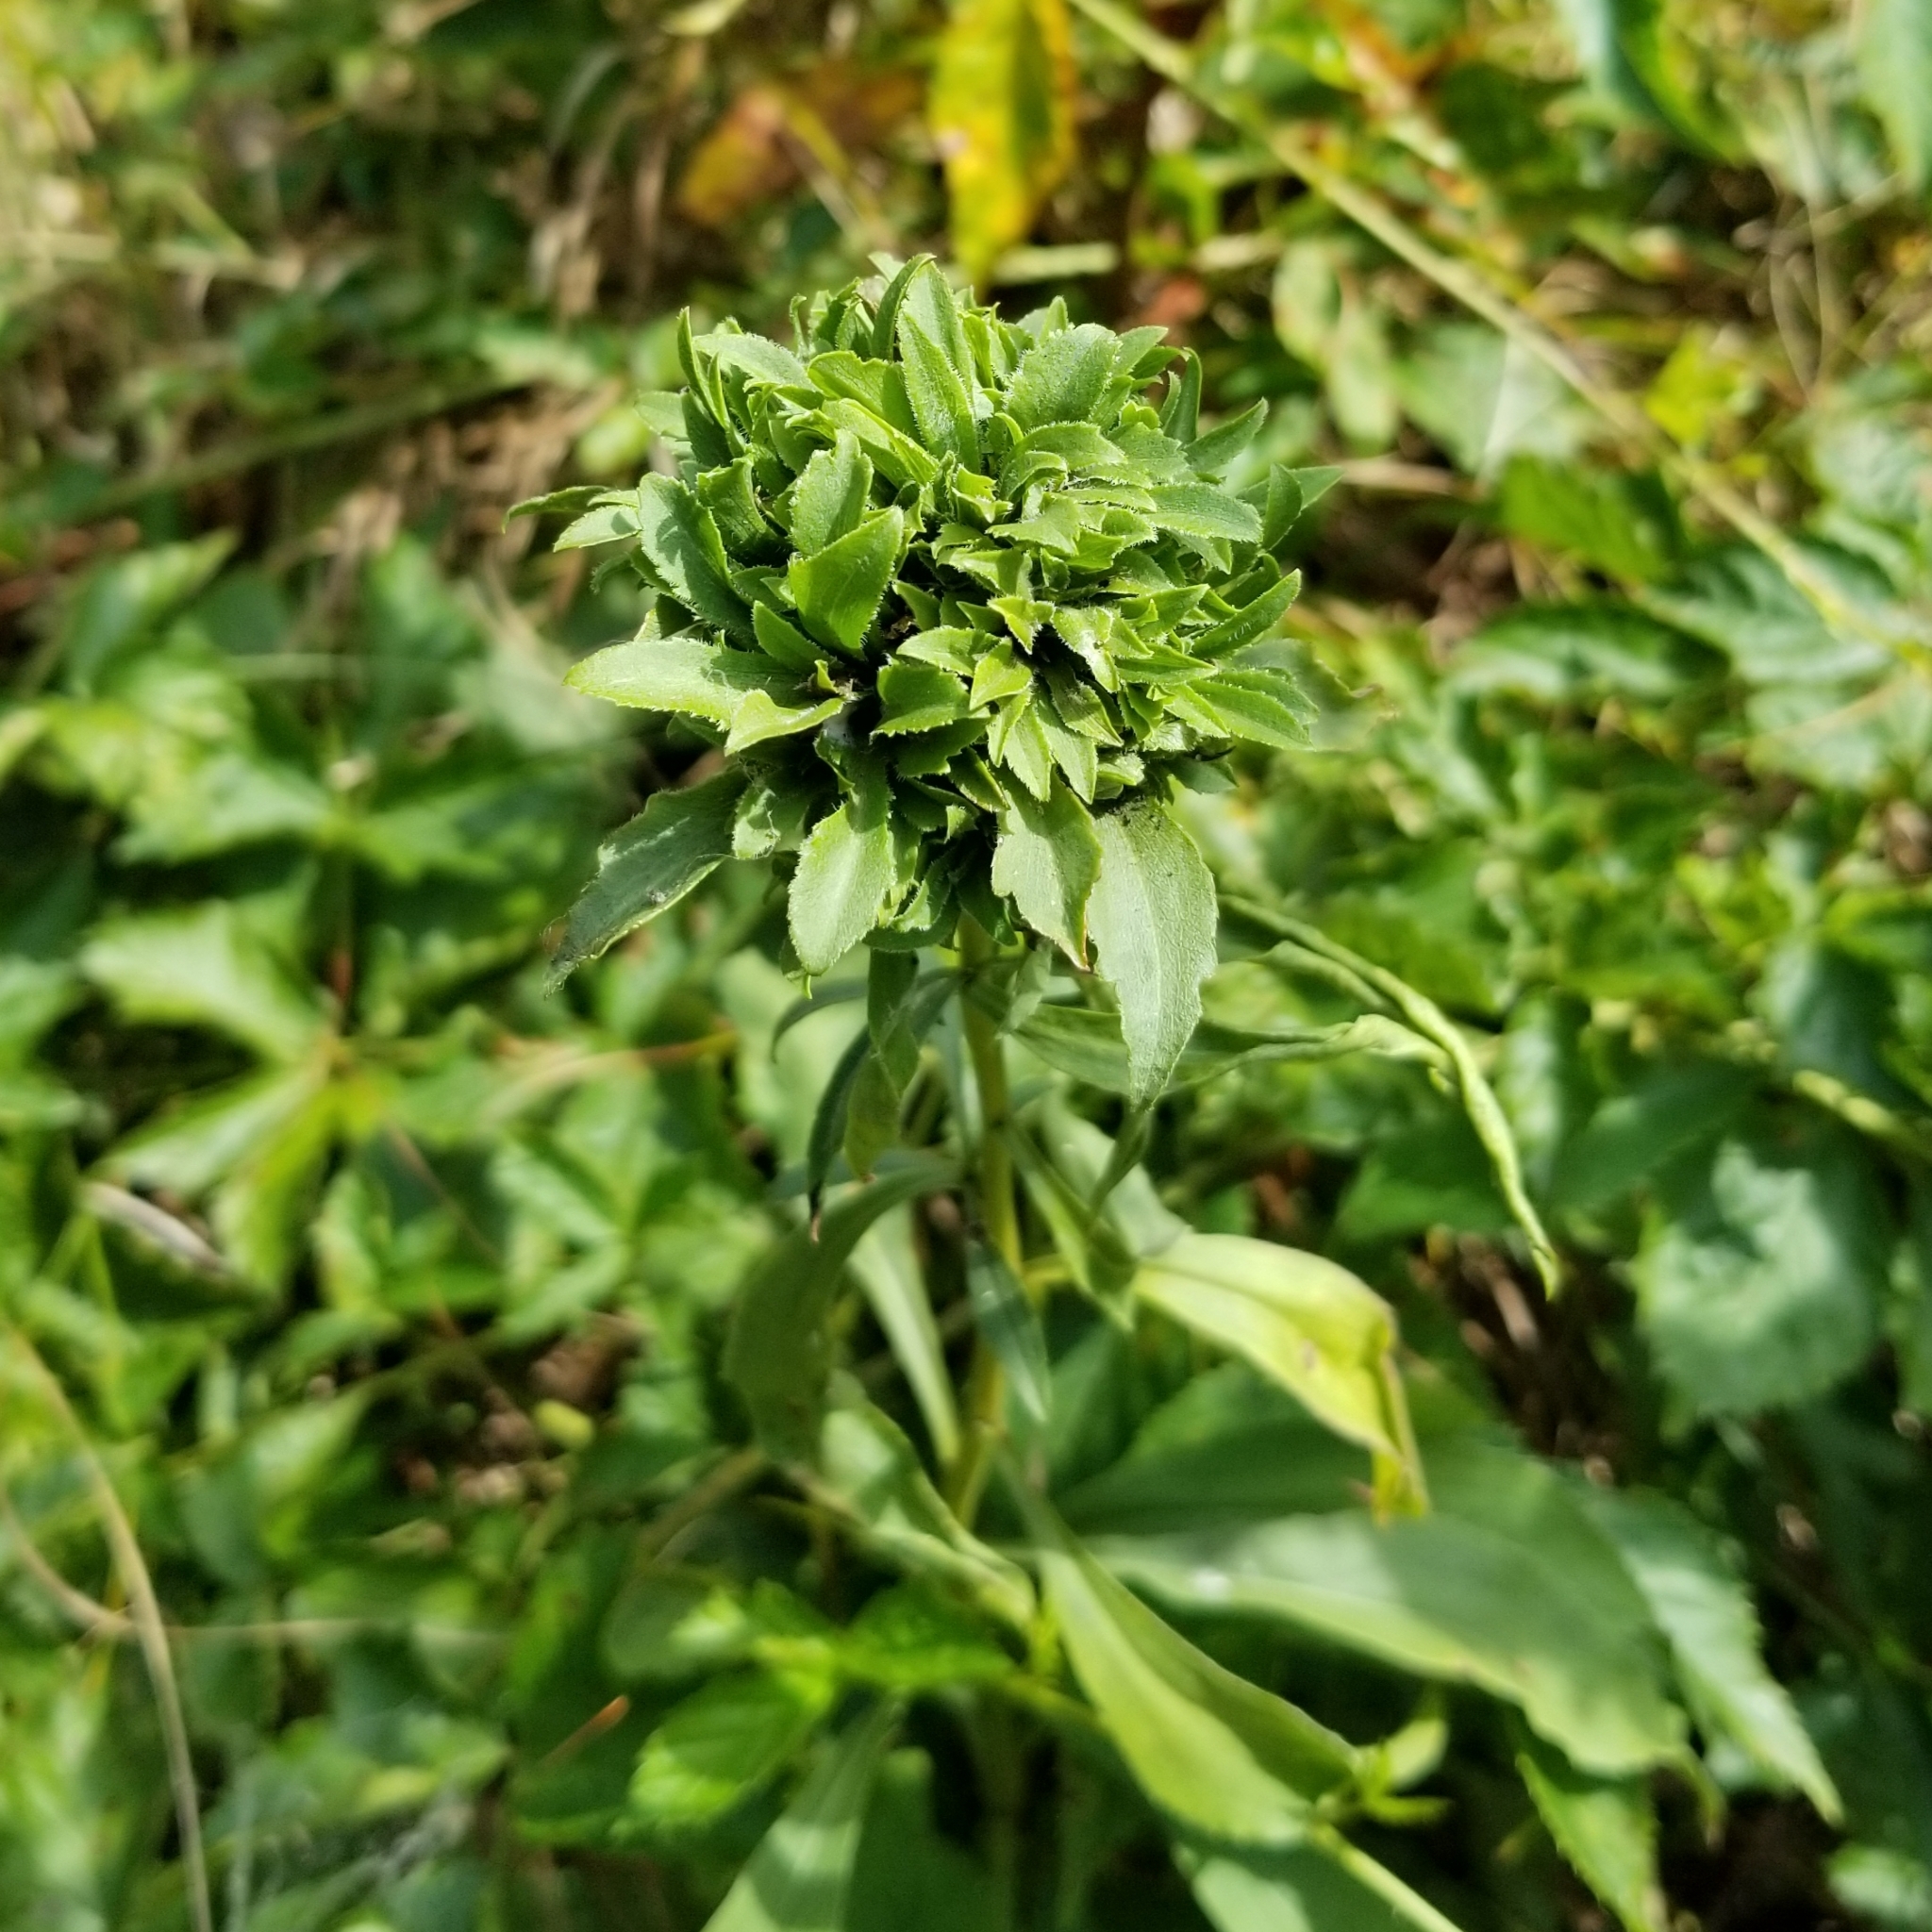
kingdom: Animalia
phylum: Arthropoda
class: Insecta
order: Diptera
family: Cecidomyiidae
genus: Asphondylia
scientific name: Asphondylia monacha
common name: Nun midge
